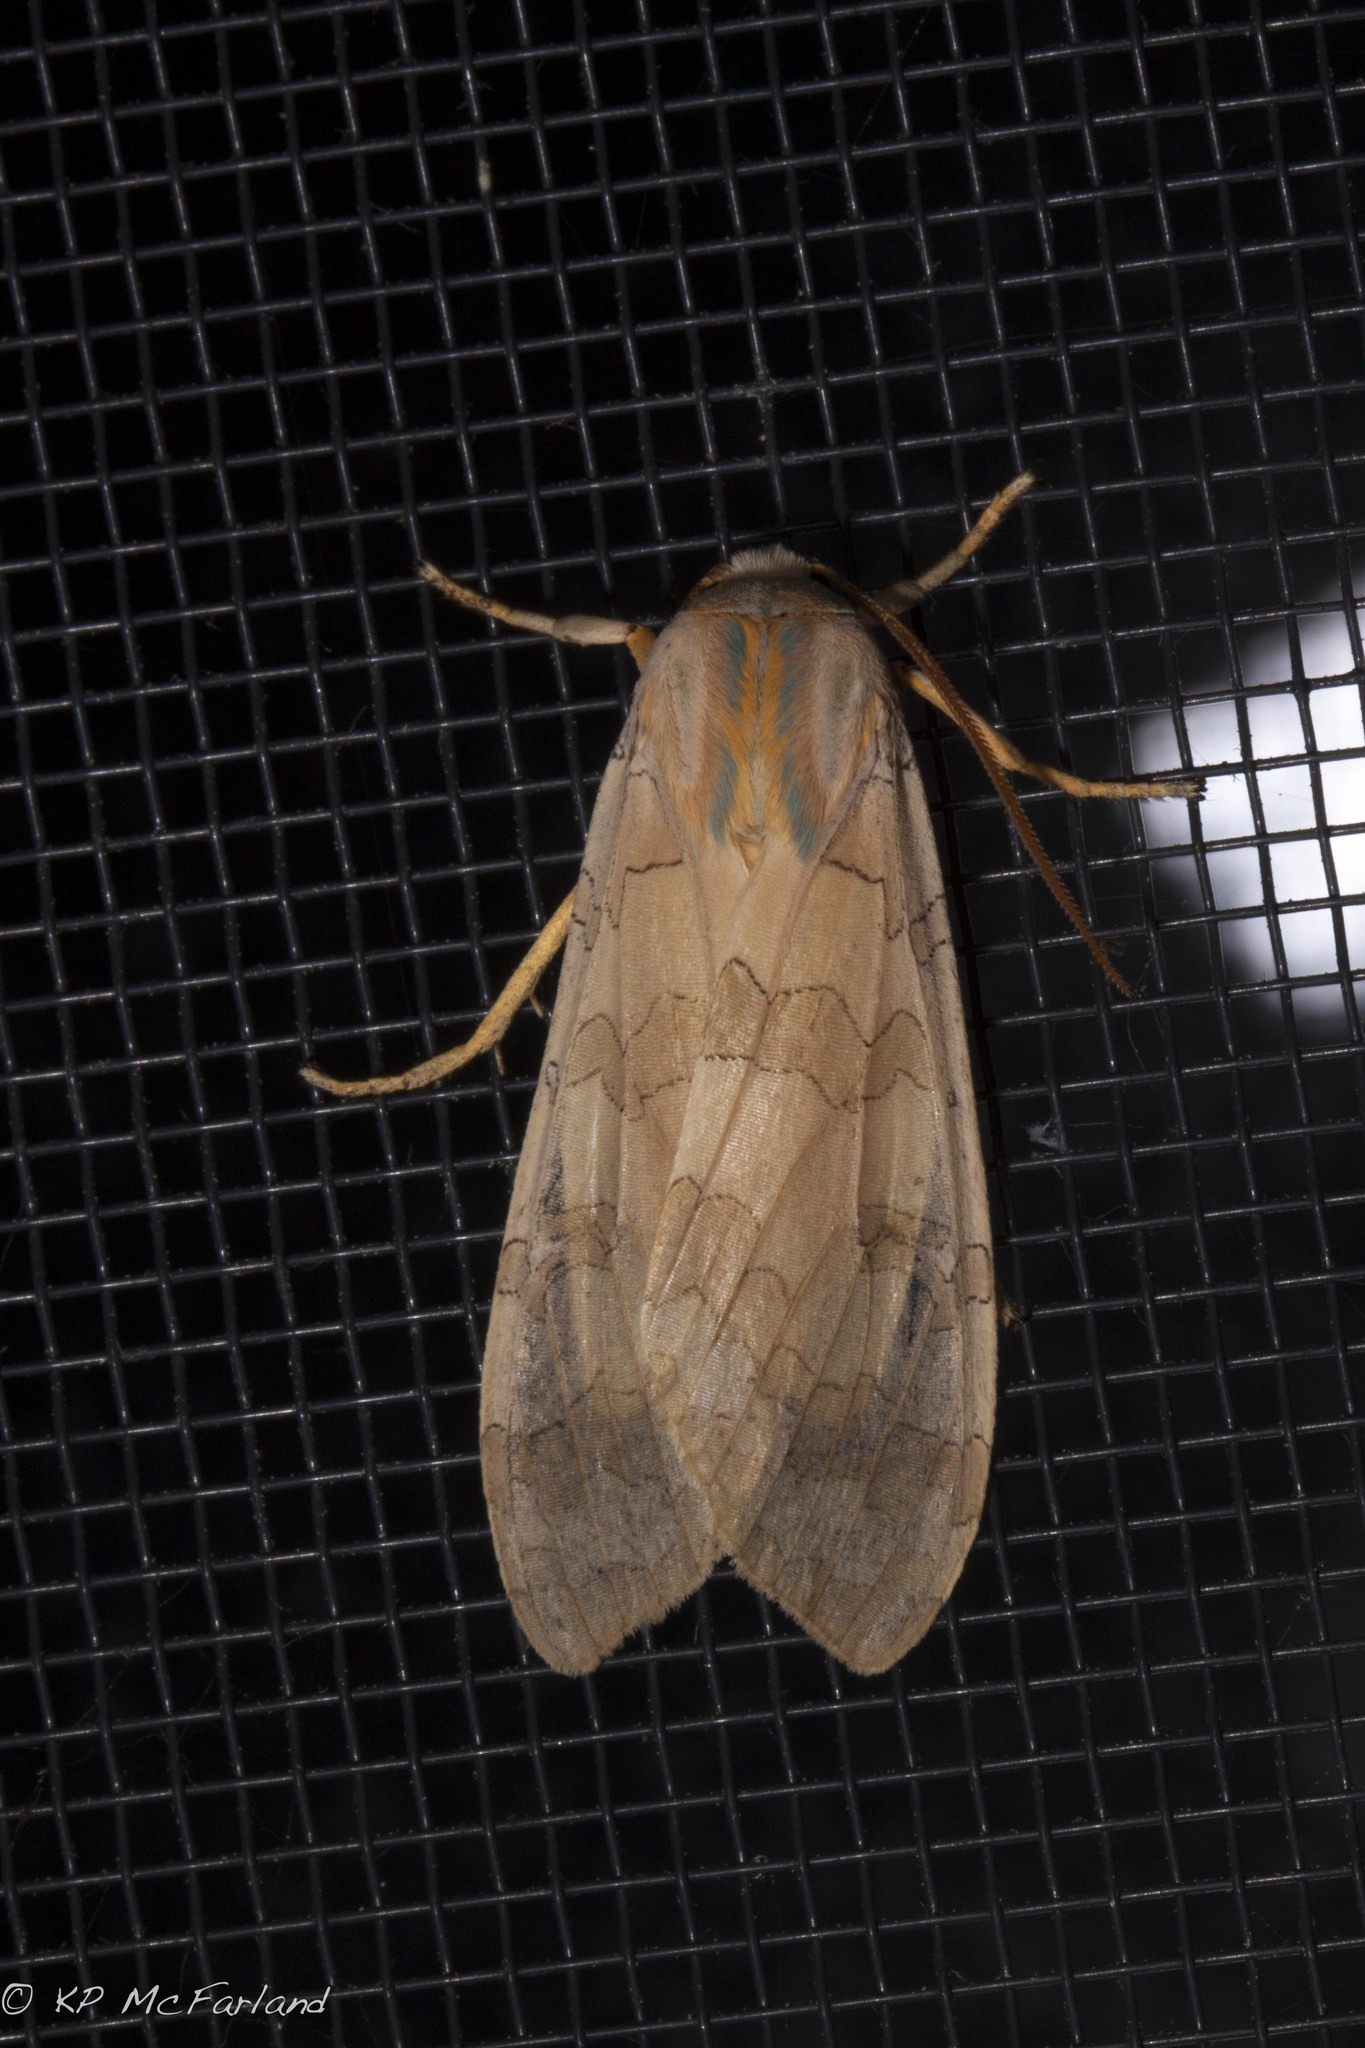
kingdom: Animalia
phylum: Arthropoda
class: Insecta
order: Lepidoptera
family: Erebidae
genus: Halysidota
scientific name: Halysidota
